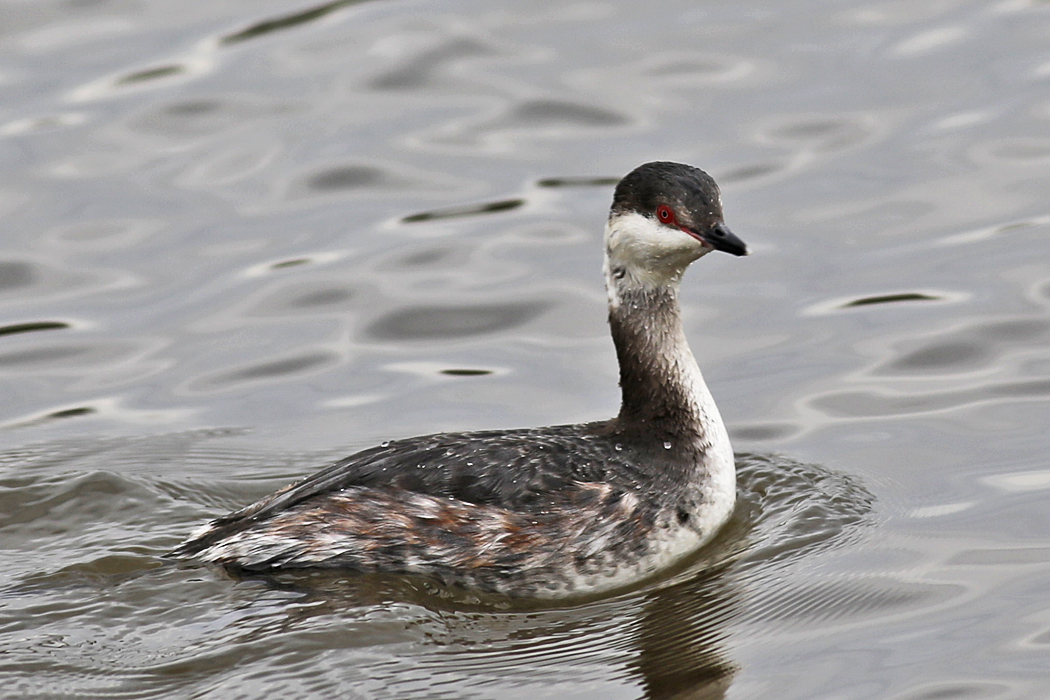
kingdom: Animalia
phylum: Chordata
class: Aves
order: Podicipediformes
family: Podicipedidae
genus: Podiceps
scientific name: Podiceps auritus
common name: Horned grebe
